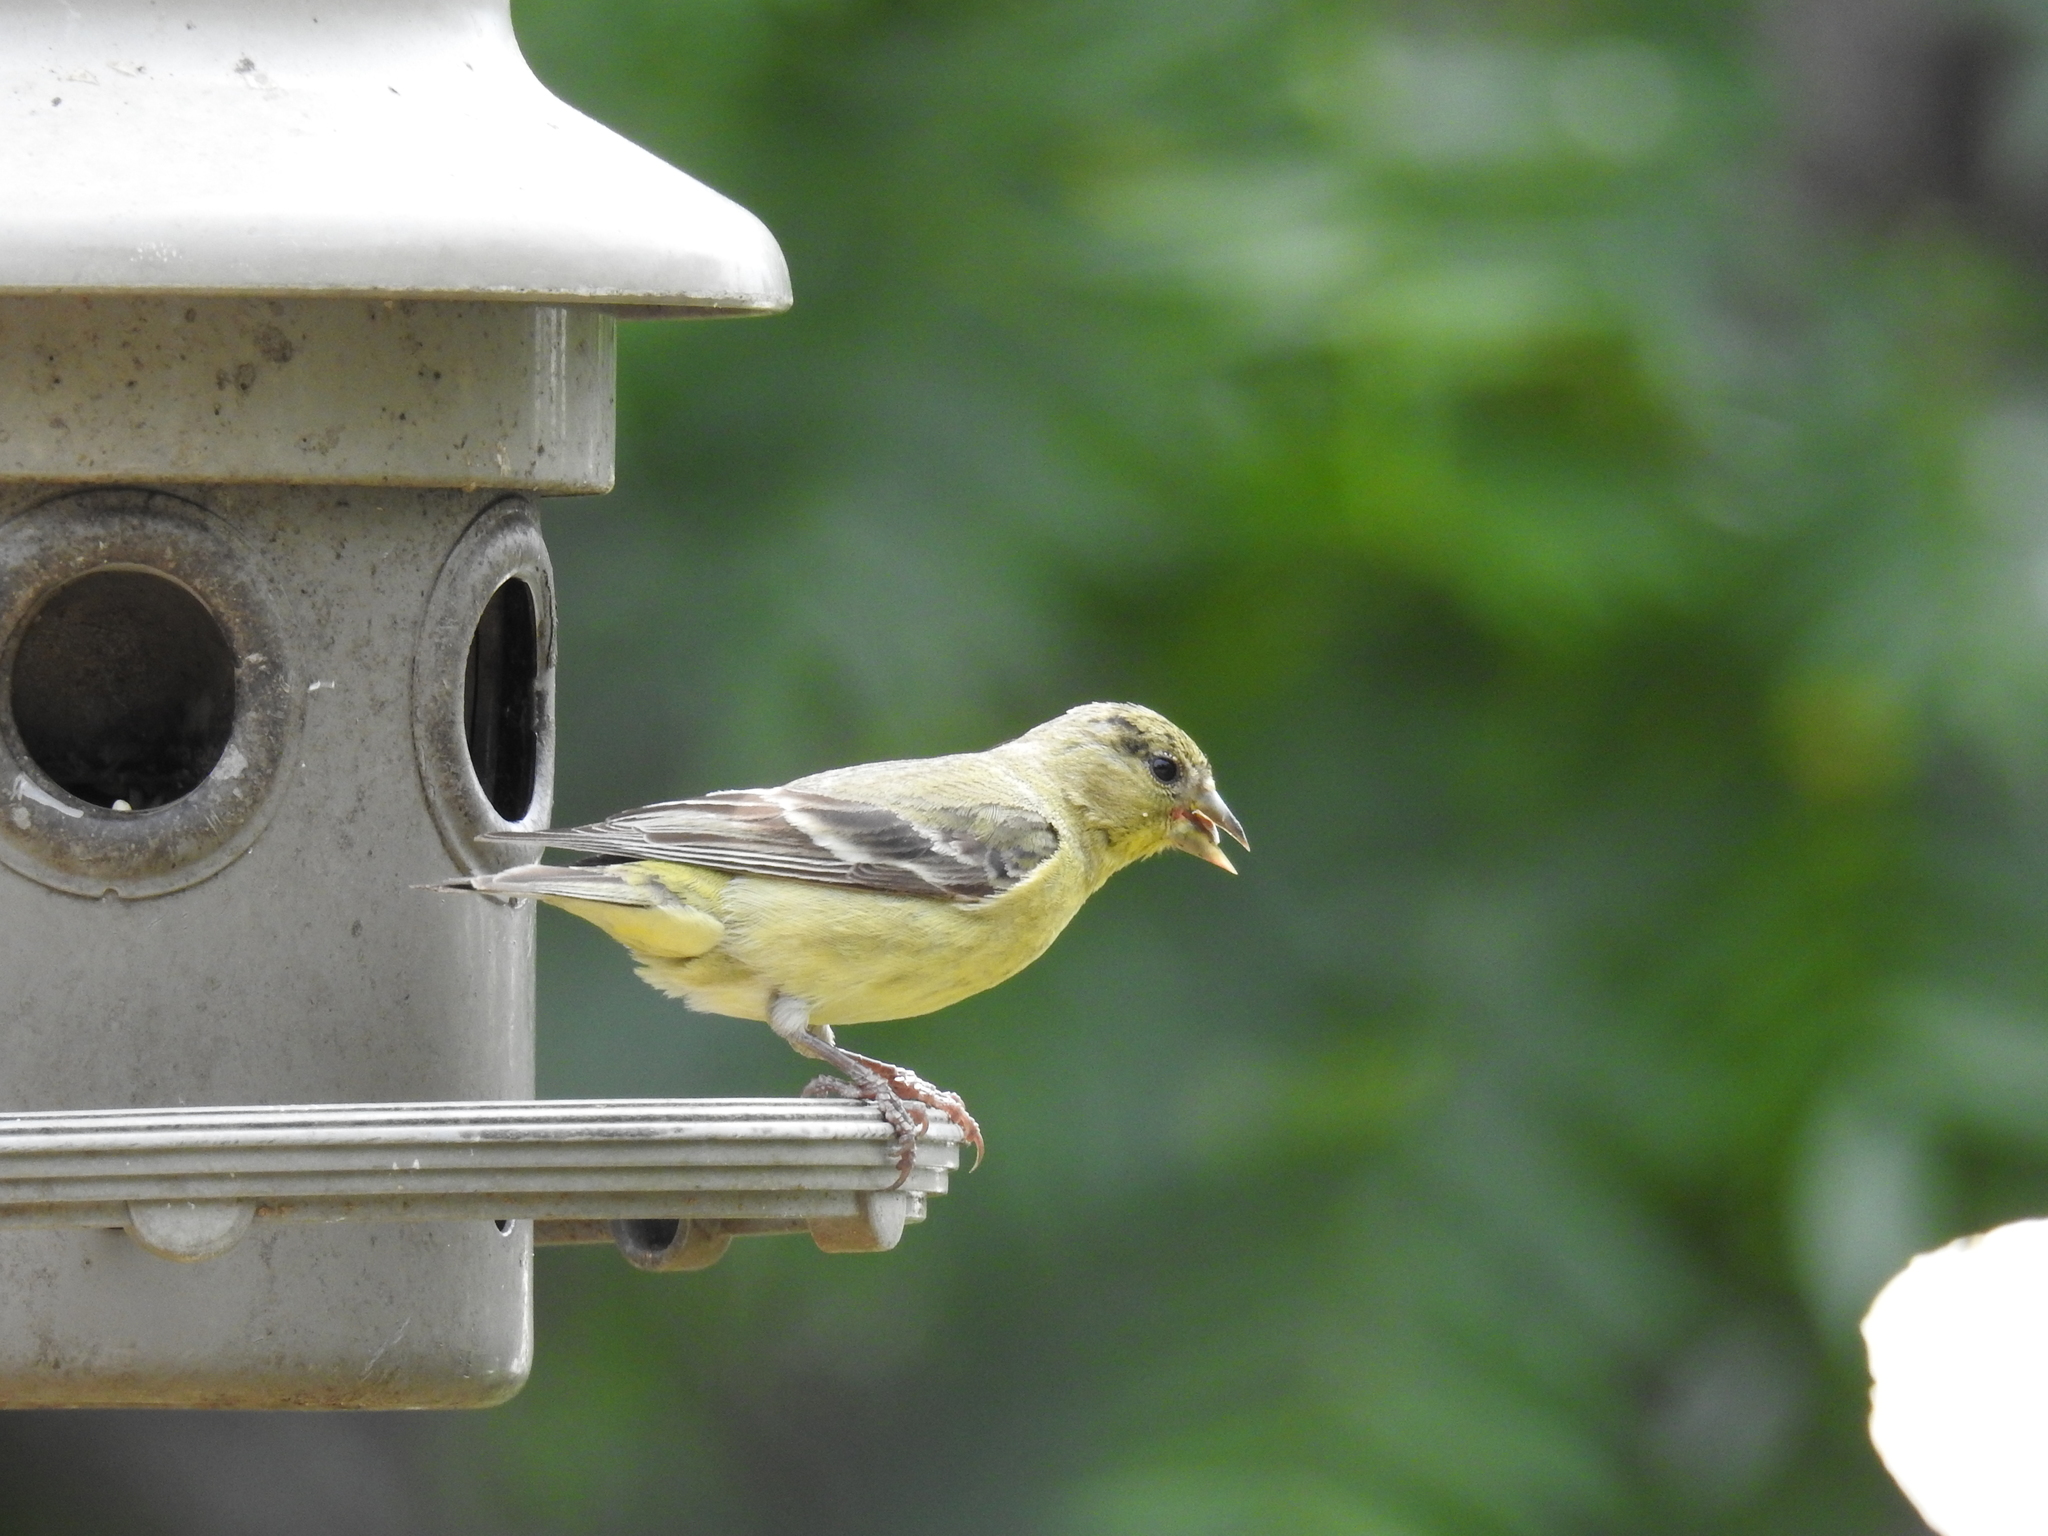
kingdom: Animalia
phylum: Chordata
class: Aves
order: Passeriformes
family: Fringillidae
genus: Spinus
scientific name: Spinus psaltria
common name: Lesser goldfinch
